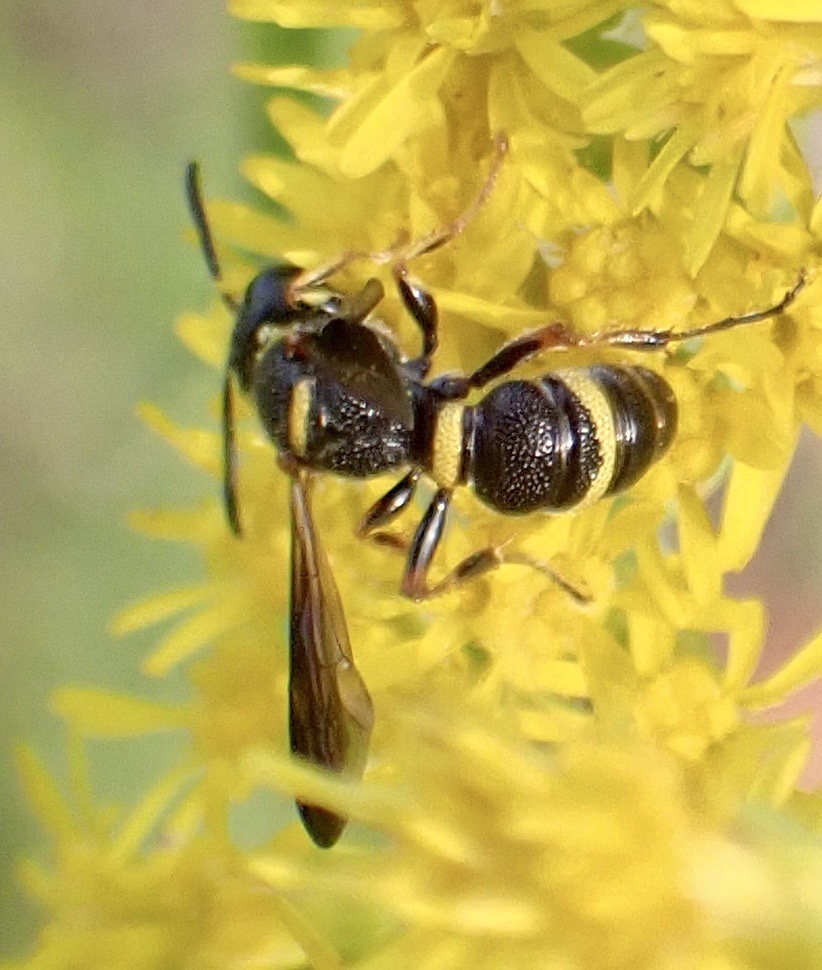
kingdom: Animalia
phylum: Arthropoda
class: Insecta
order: Hymenoptera
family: Crabronidae
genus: Cerceris
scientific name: Cerceris insolita
